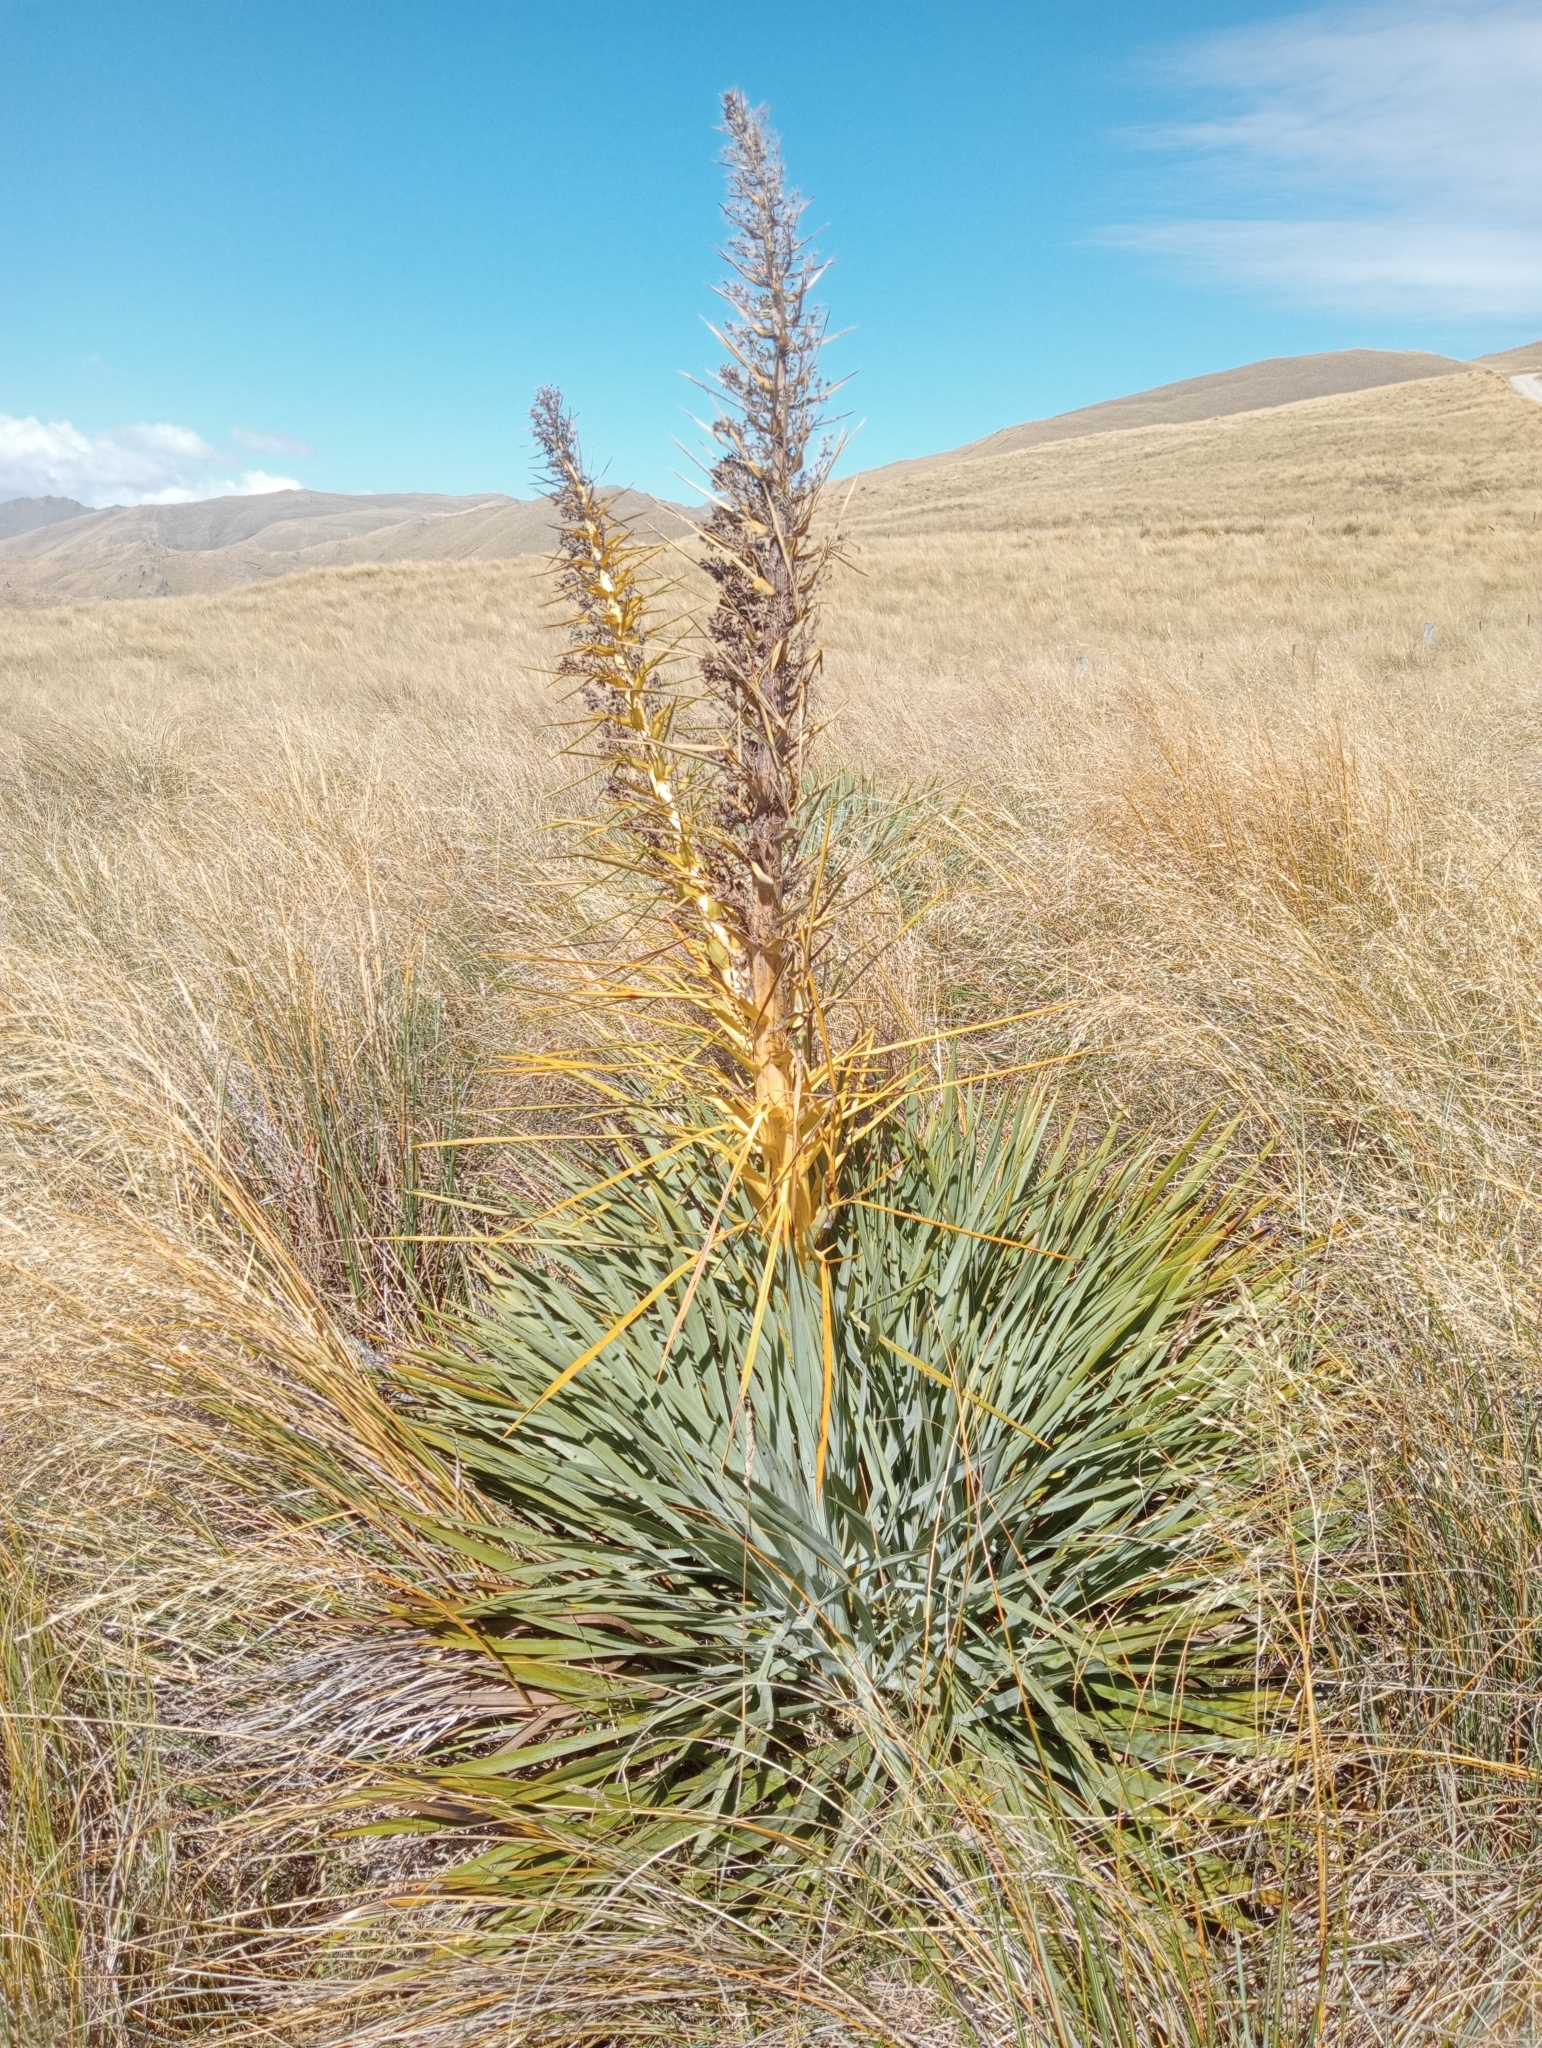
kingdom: Plantae
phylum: Tracheophyta
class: Magnoliopsida
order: Apiales
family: Apiaceae
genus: Aciphylla
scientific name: Aciphylla scott-thomsonii
